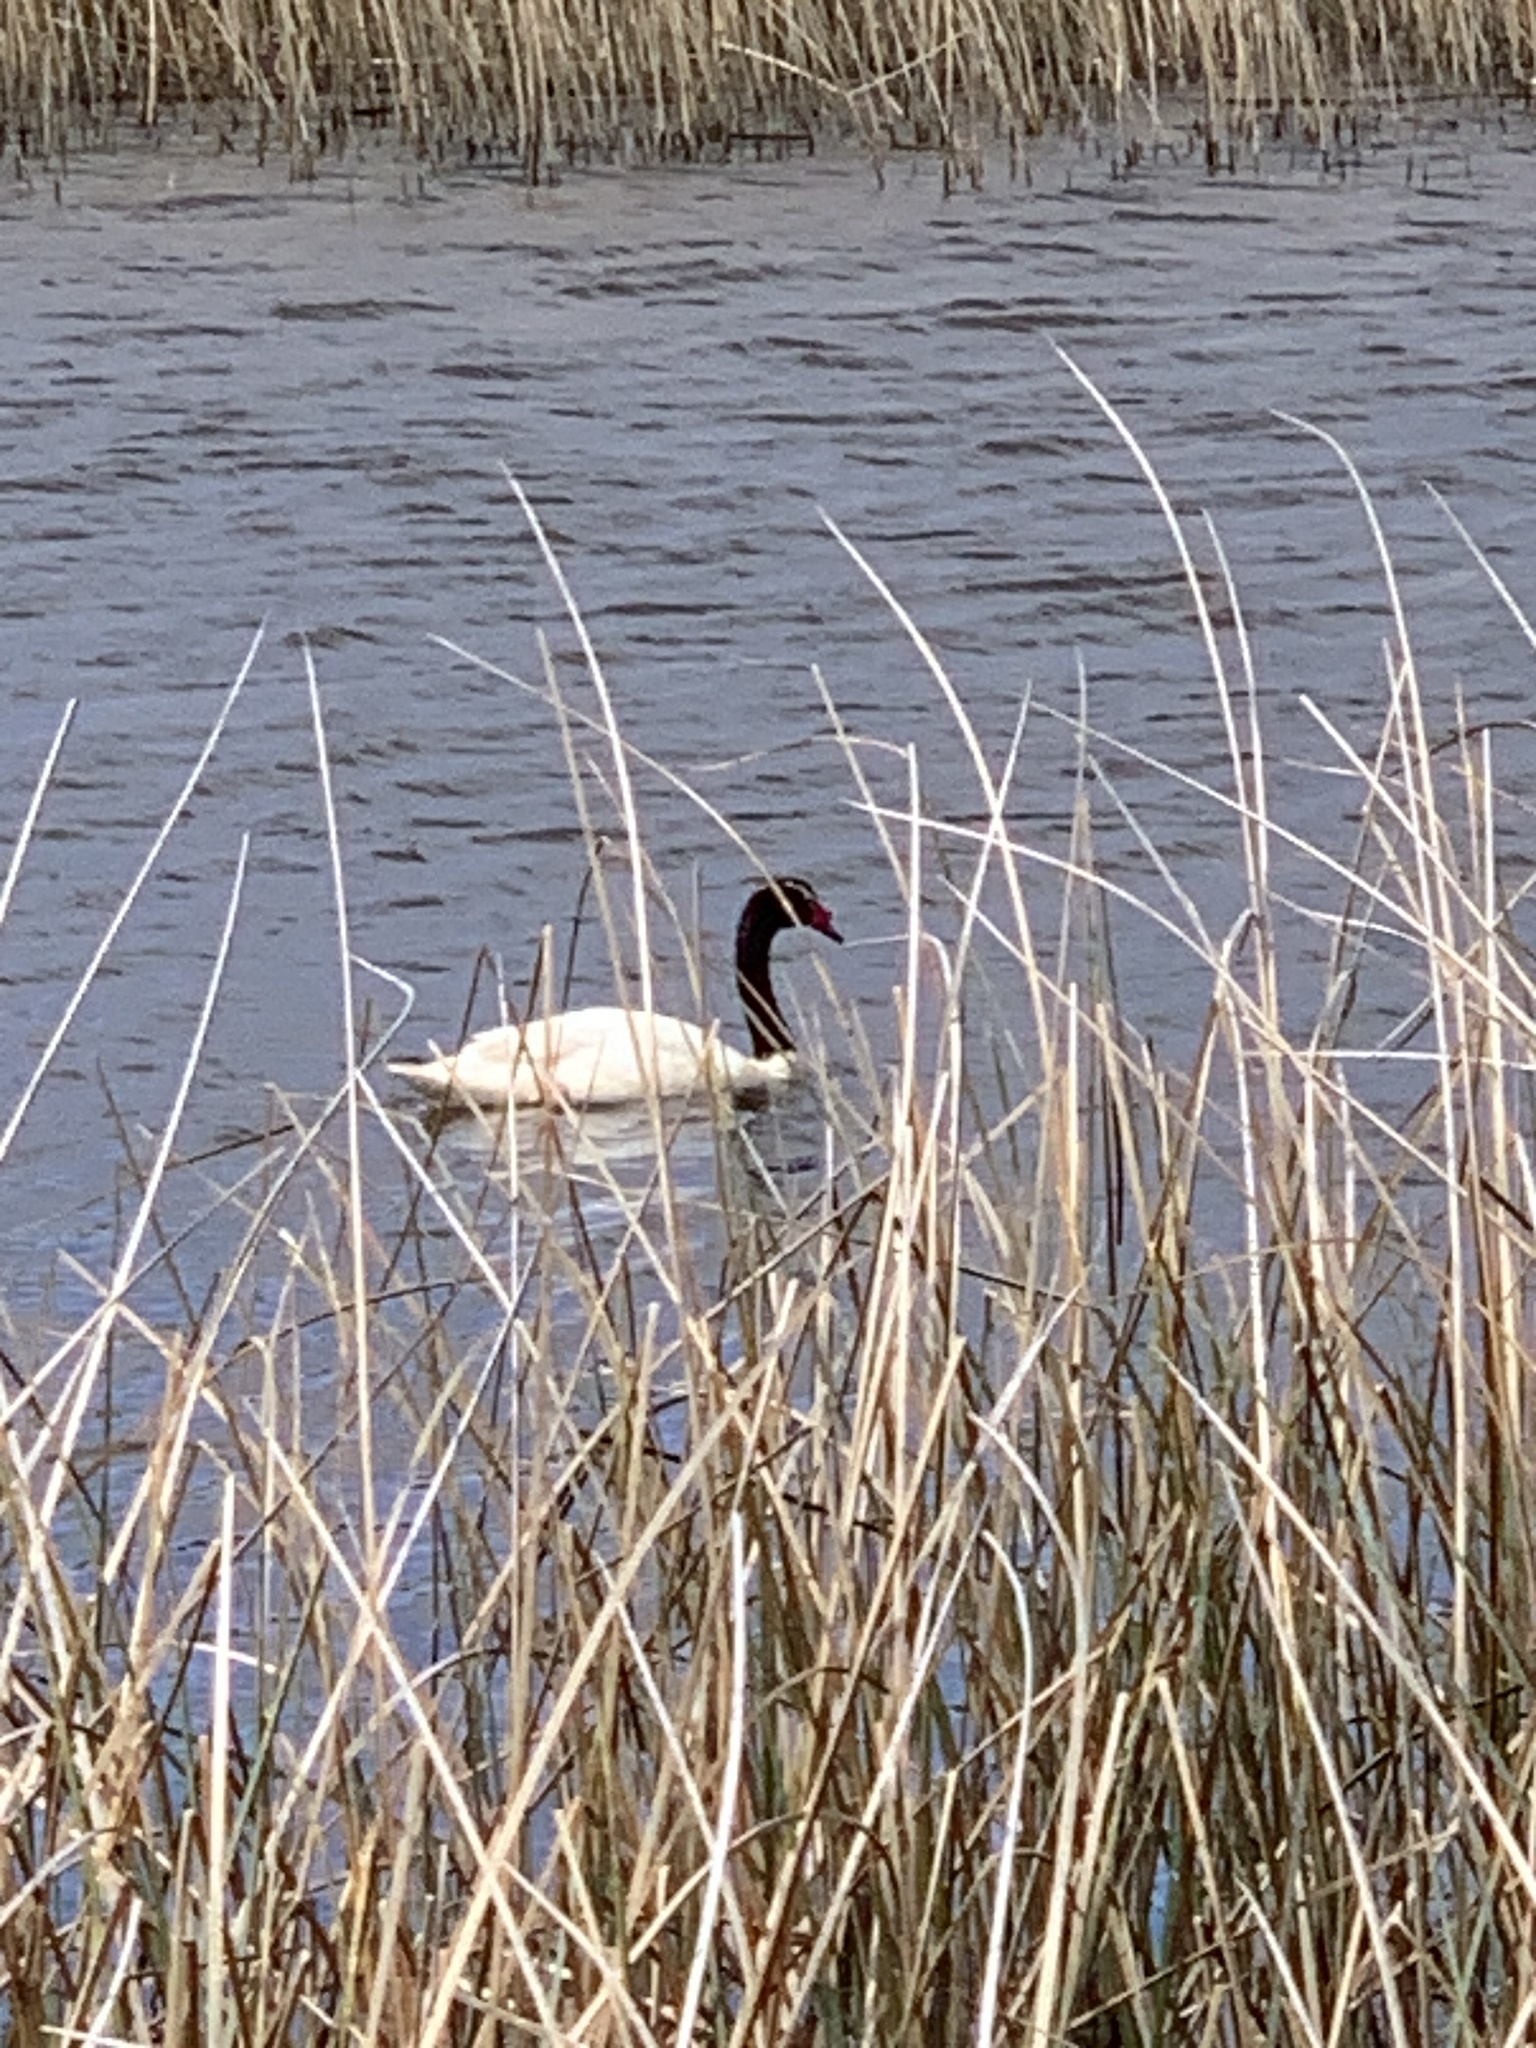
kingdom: Animalia
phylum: Chordata
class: Aves
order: Anseriformes
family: Anatidae
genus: Cygnus
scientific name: Cygnus melancoryphus
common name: Black-necked swan
